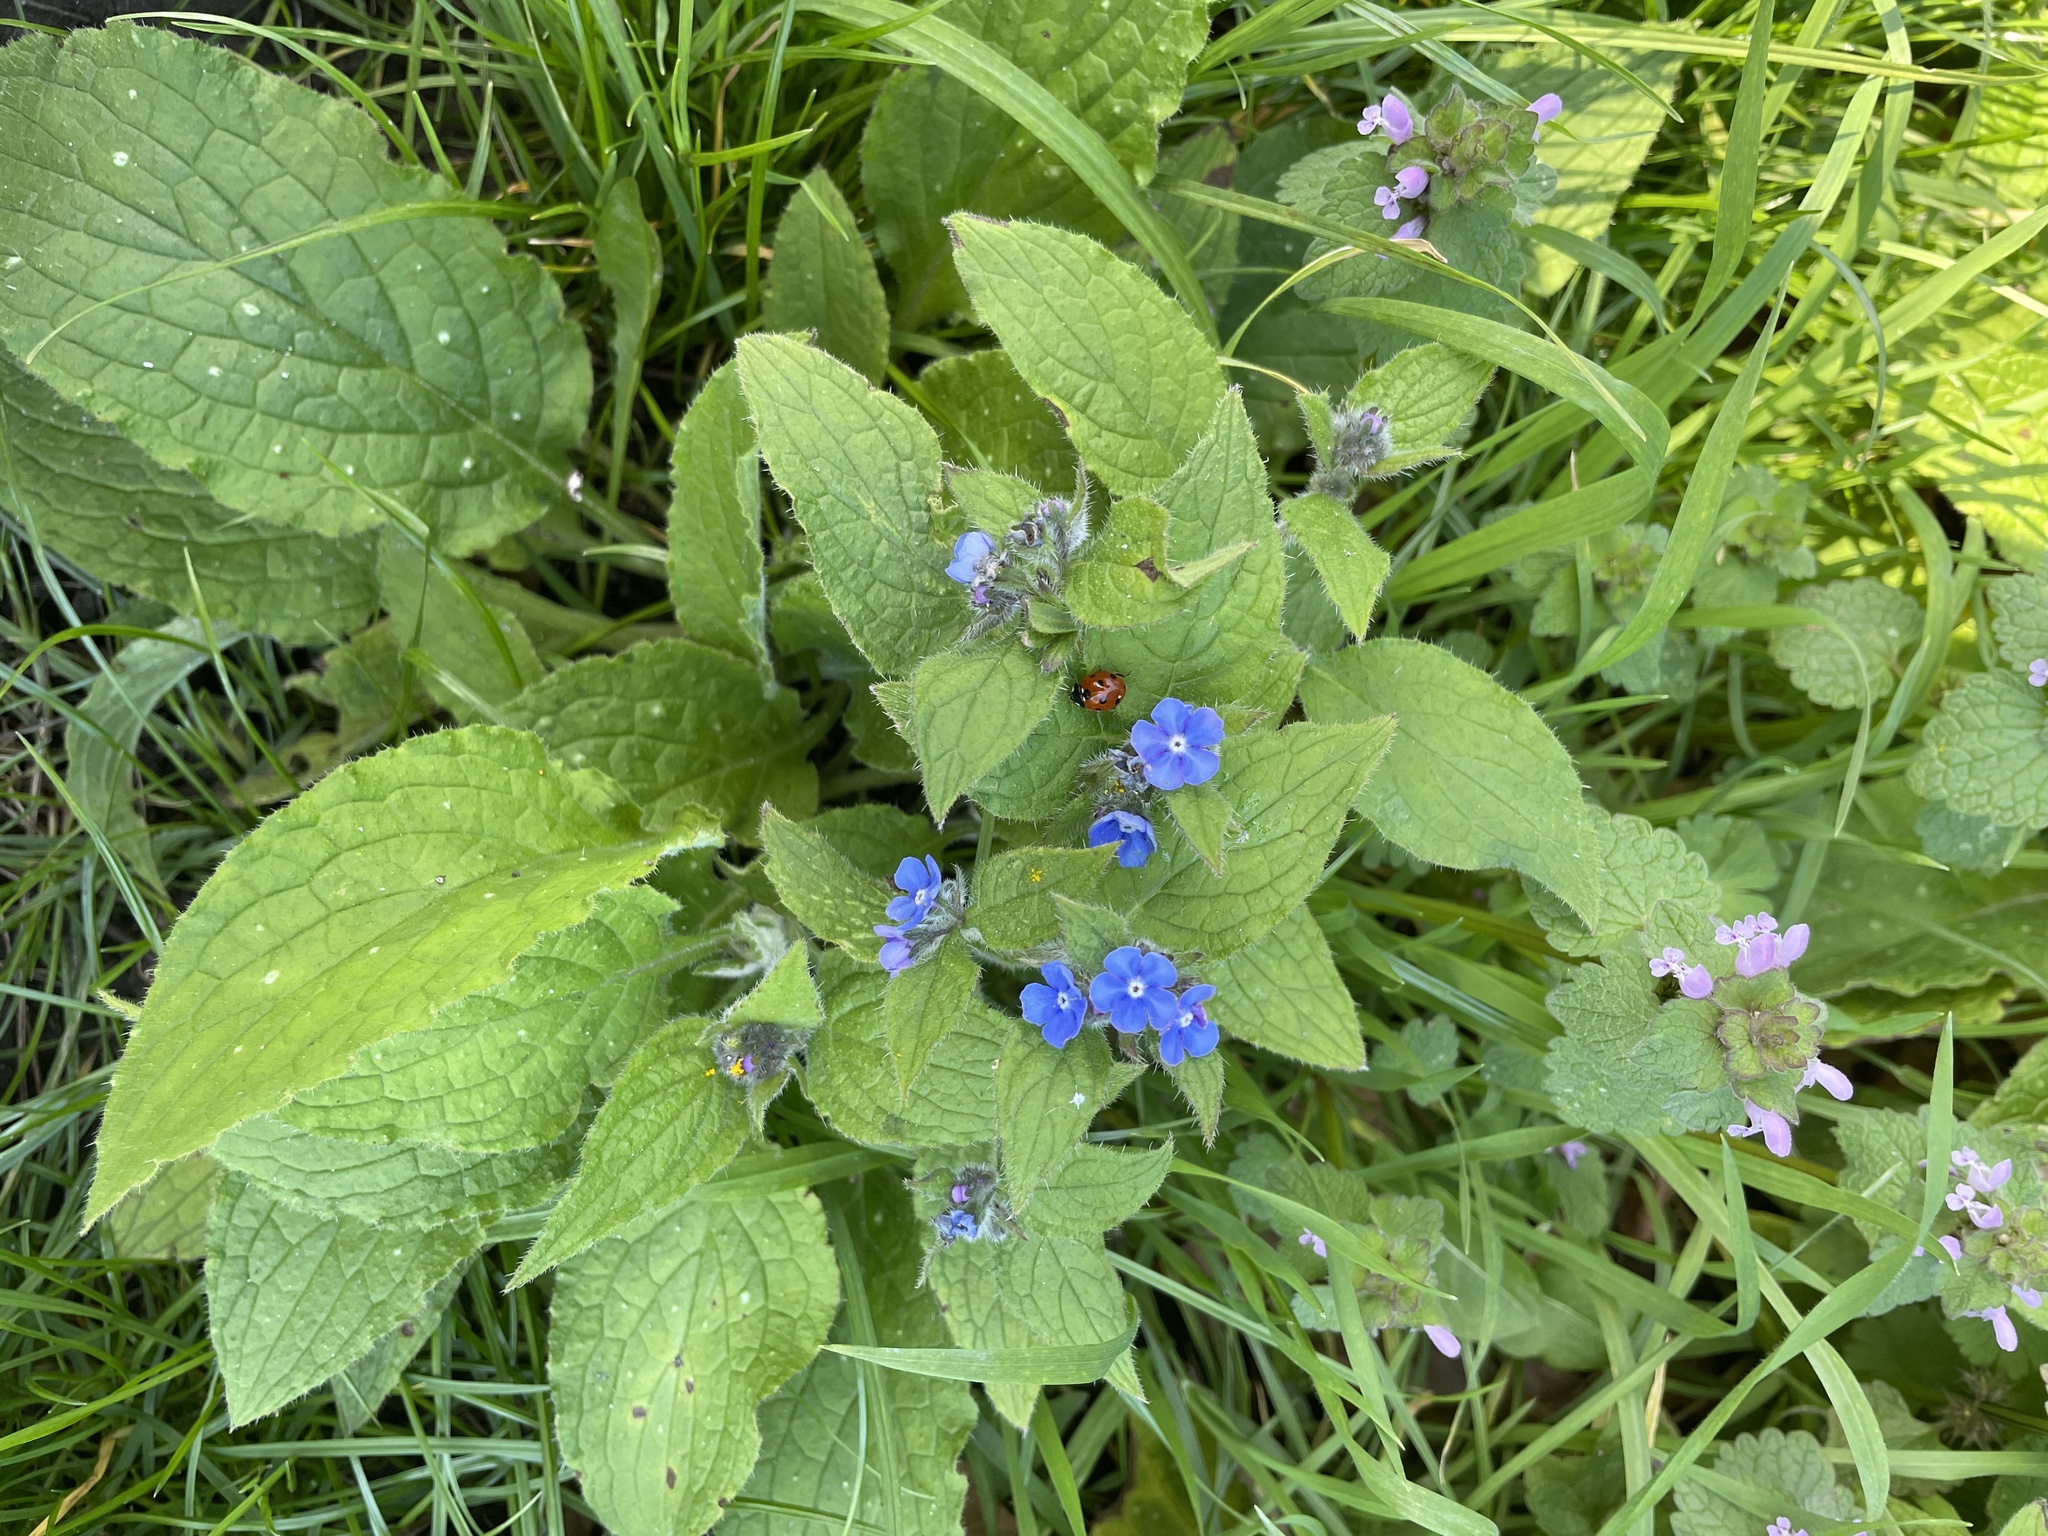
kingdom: Plantae
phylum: Tracheophyta
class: Magnoliopsida
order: Boraginales
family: Boraginaceae
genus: Pentaglottis
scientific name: Pentaglottis sempervirens
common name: Green alkanet
